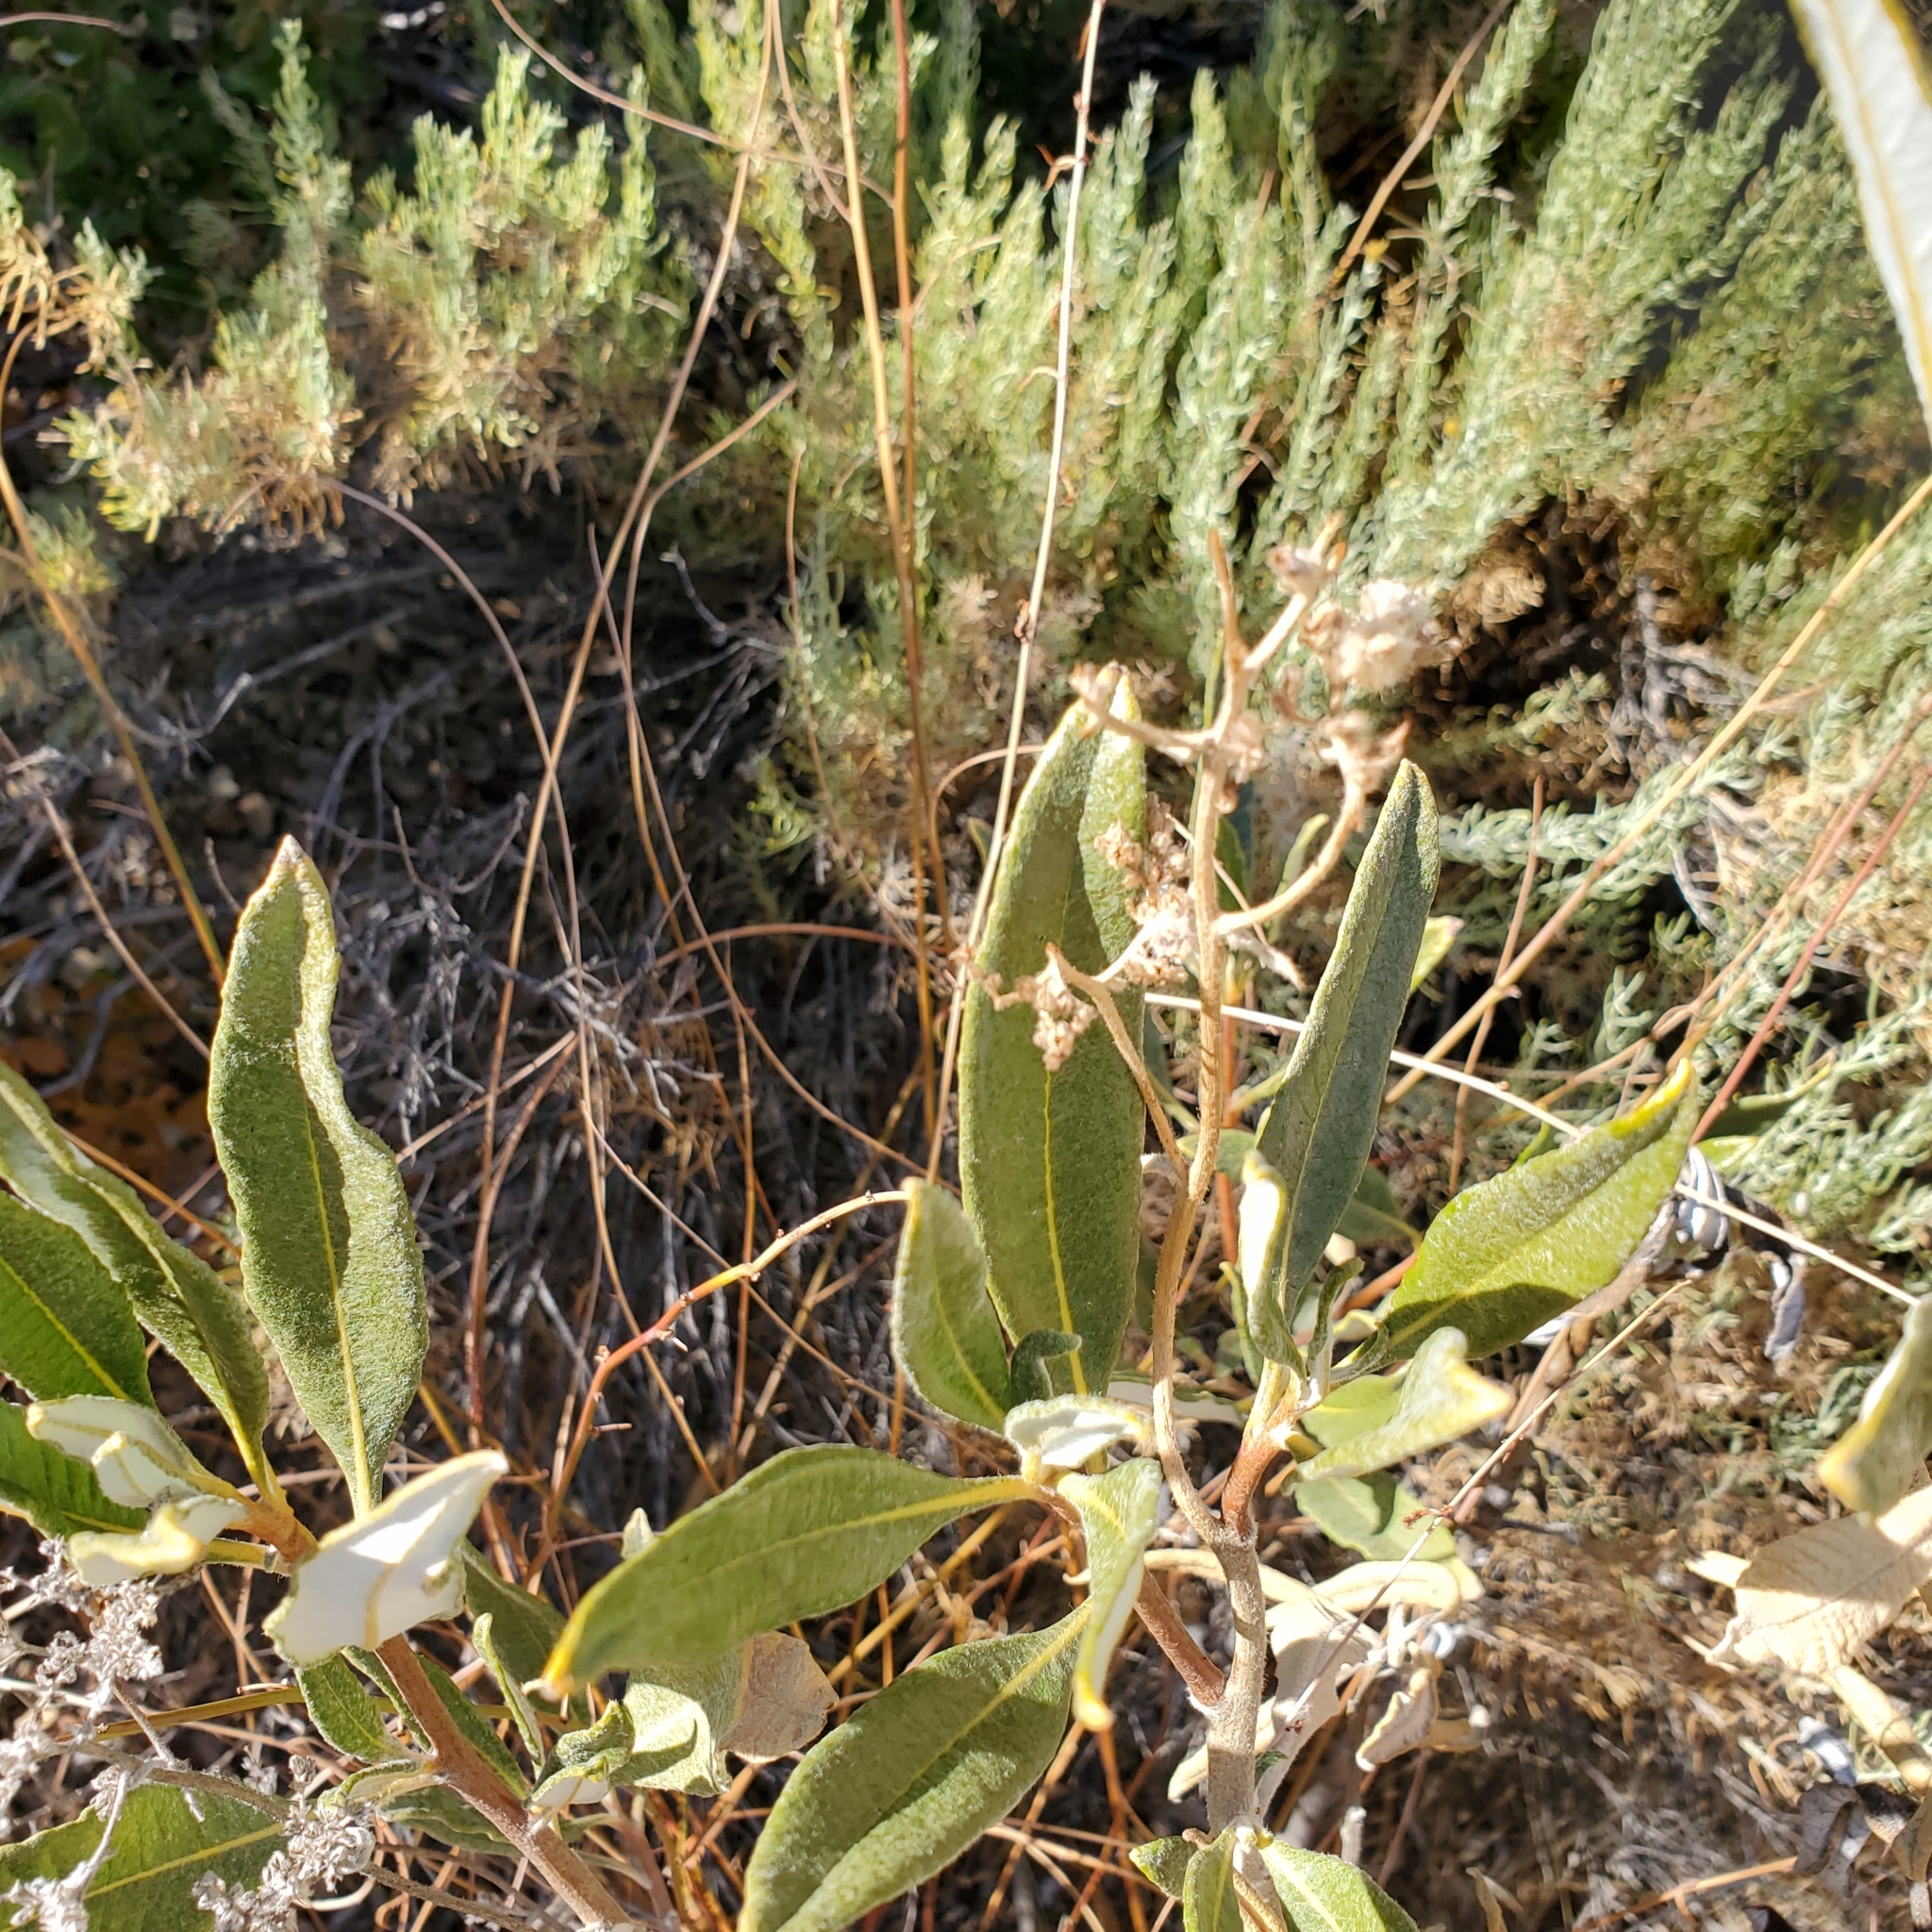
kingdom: Plantae
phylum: Tracheophyta
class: Magnoliopsida
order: Boraginales
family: Namaceae
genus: Eriodictyon
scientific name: Eriodictyon trichocalyx
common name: Hairy yerba-santa
